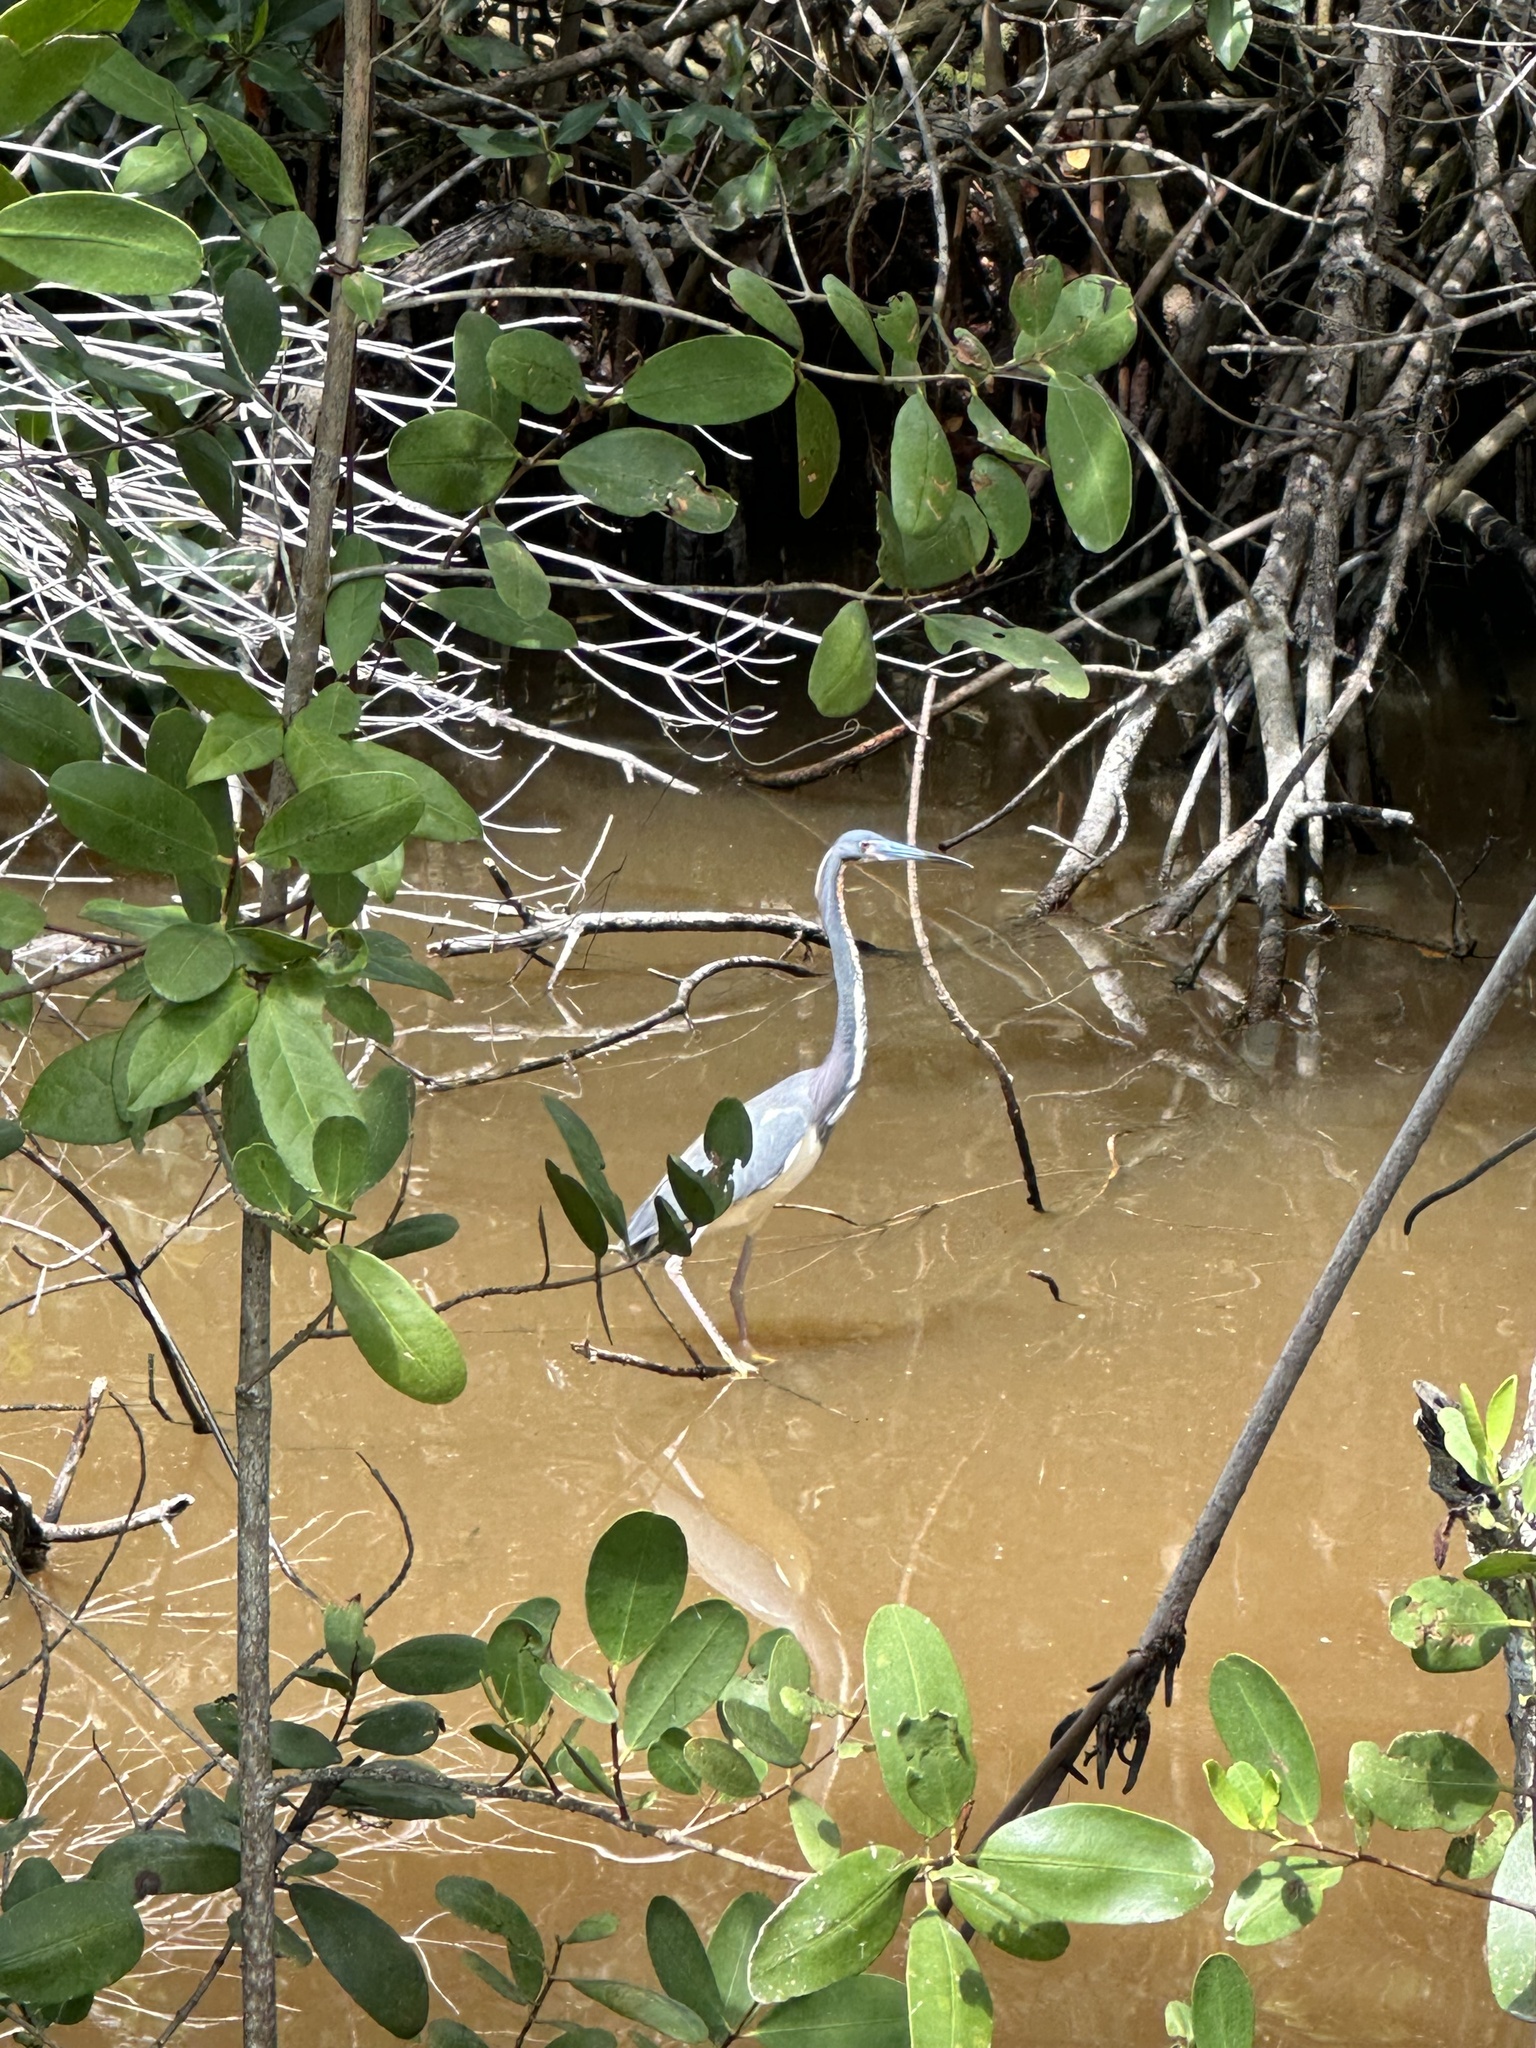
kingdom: Animalia
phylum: Chordata
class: Aves
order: Pelecaniformes
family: Ardeidae
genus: Egretta
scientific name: Egretta tricolor
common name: Tricolored heron
